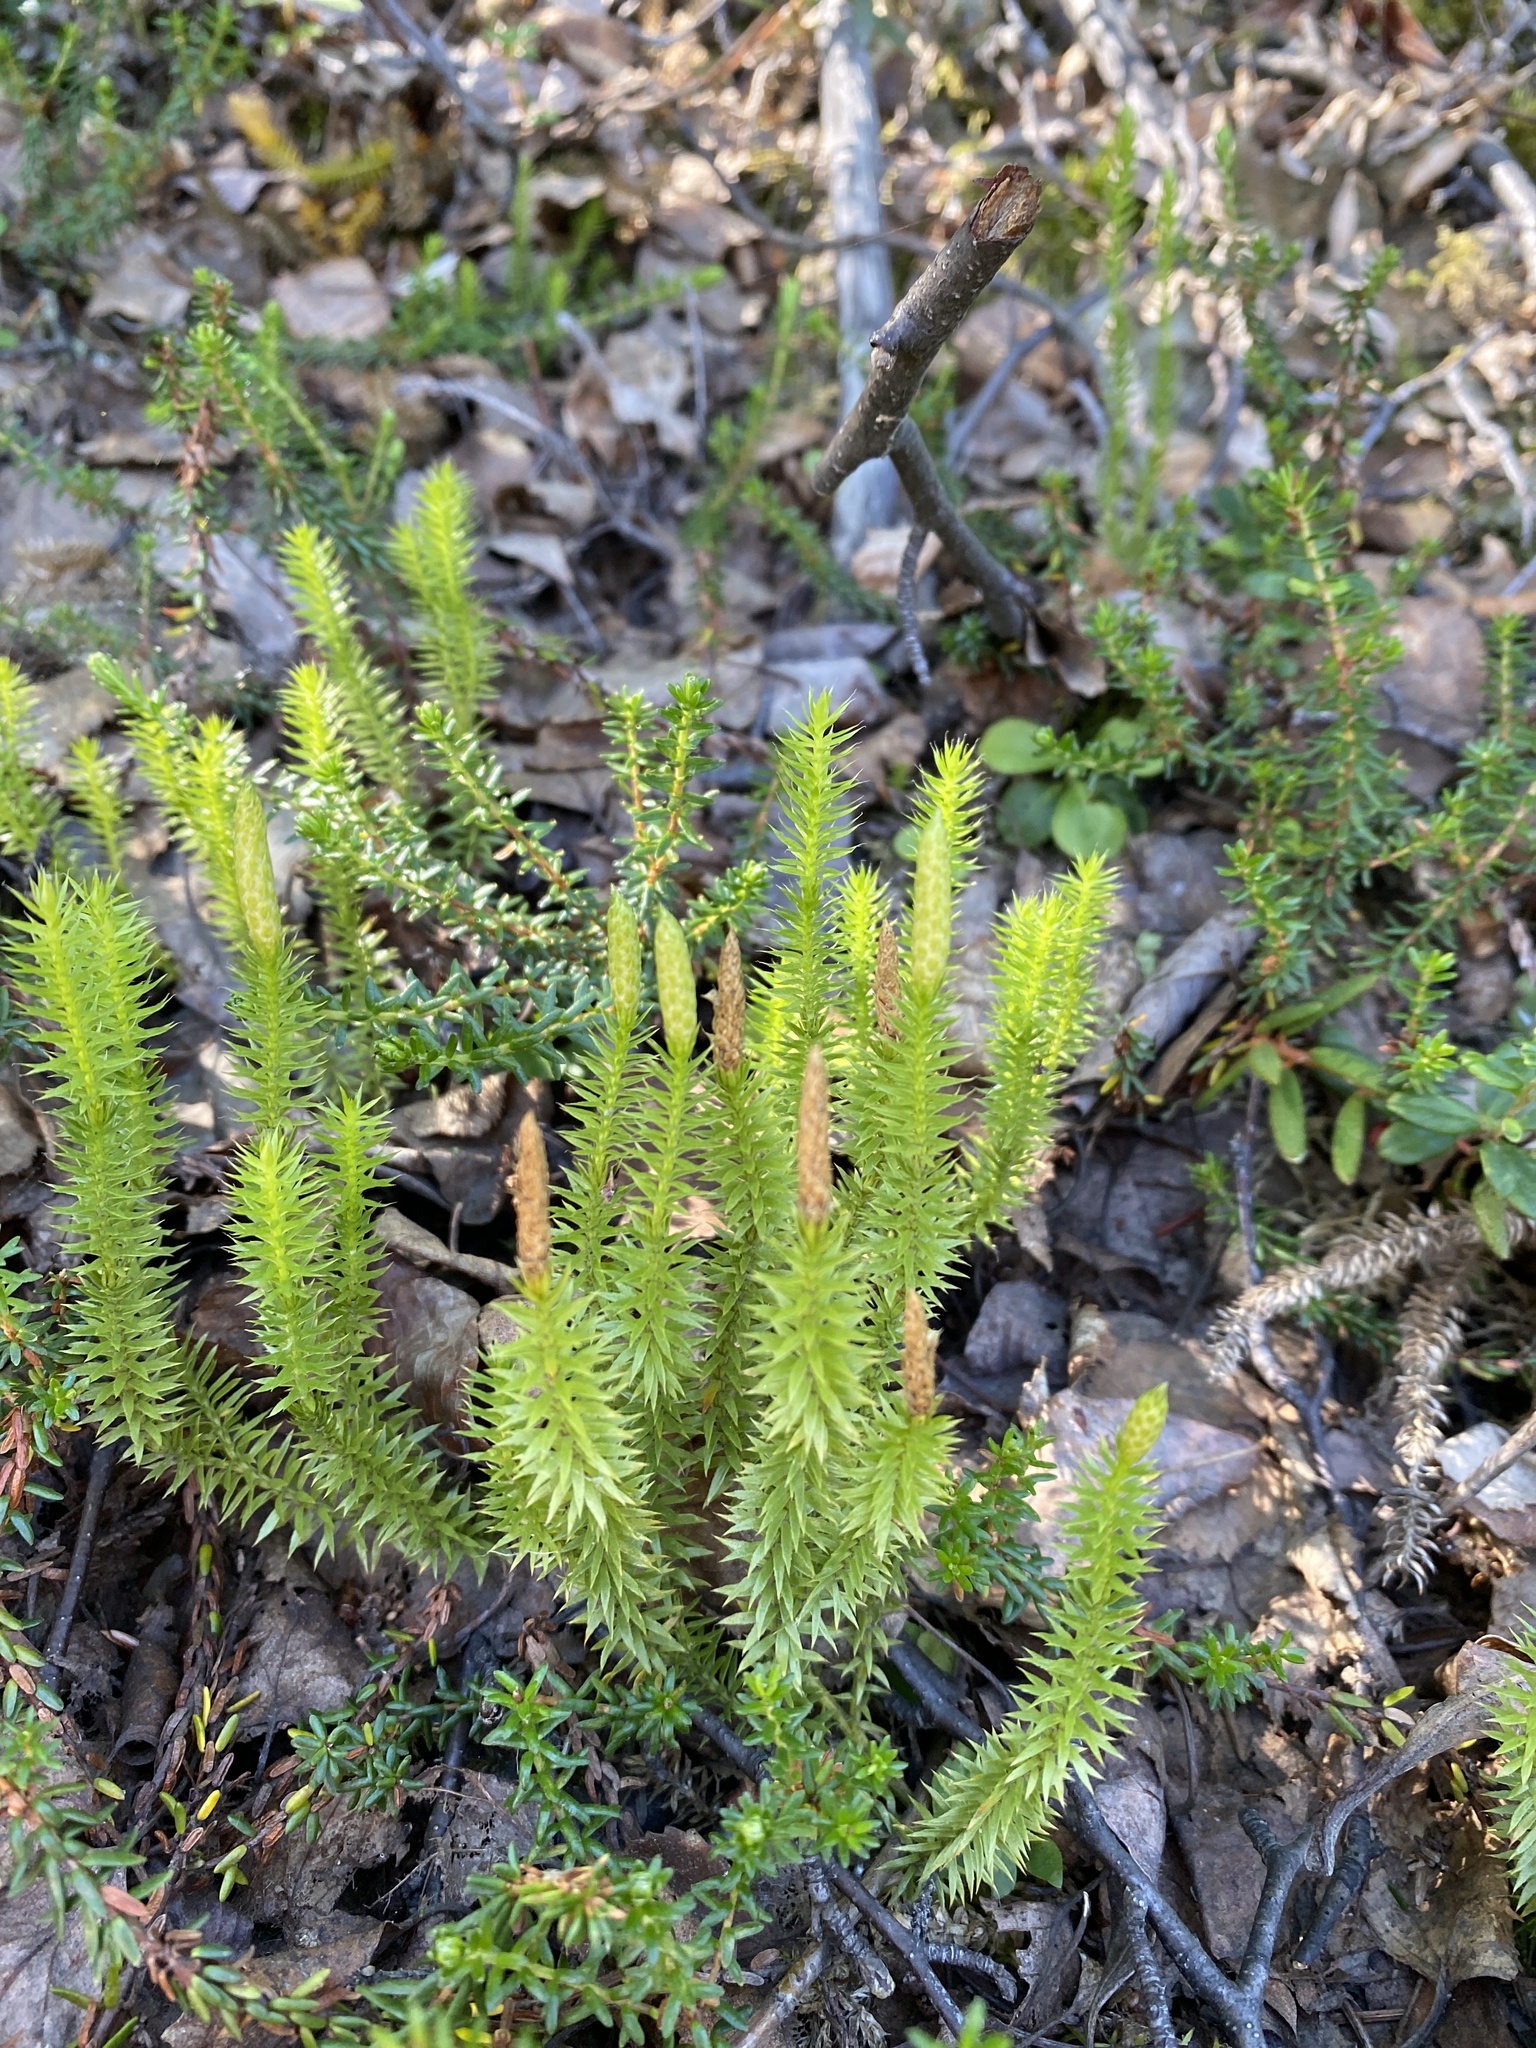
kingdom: Plantae
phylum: Tracheophyta
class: Lycopodiopsida
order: Lycopodiales
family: Lycopodiaceae
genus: Spinulum
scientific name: Spinulum annotinum
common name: Interrupted club-moss
